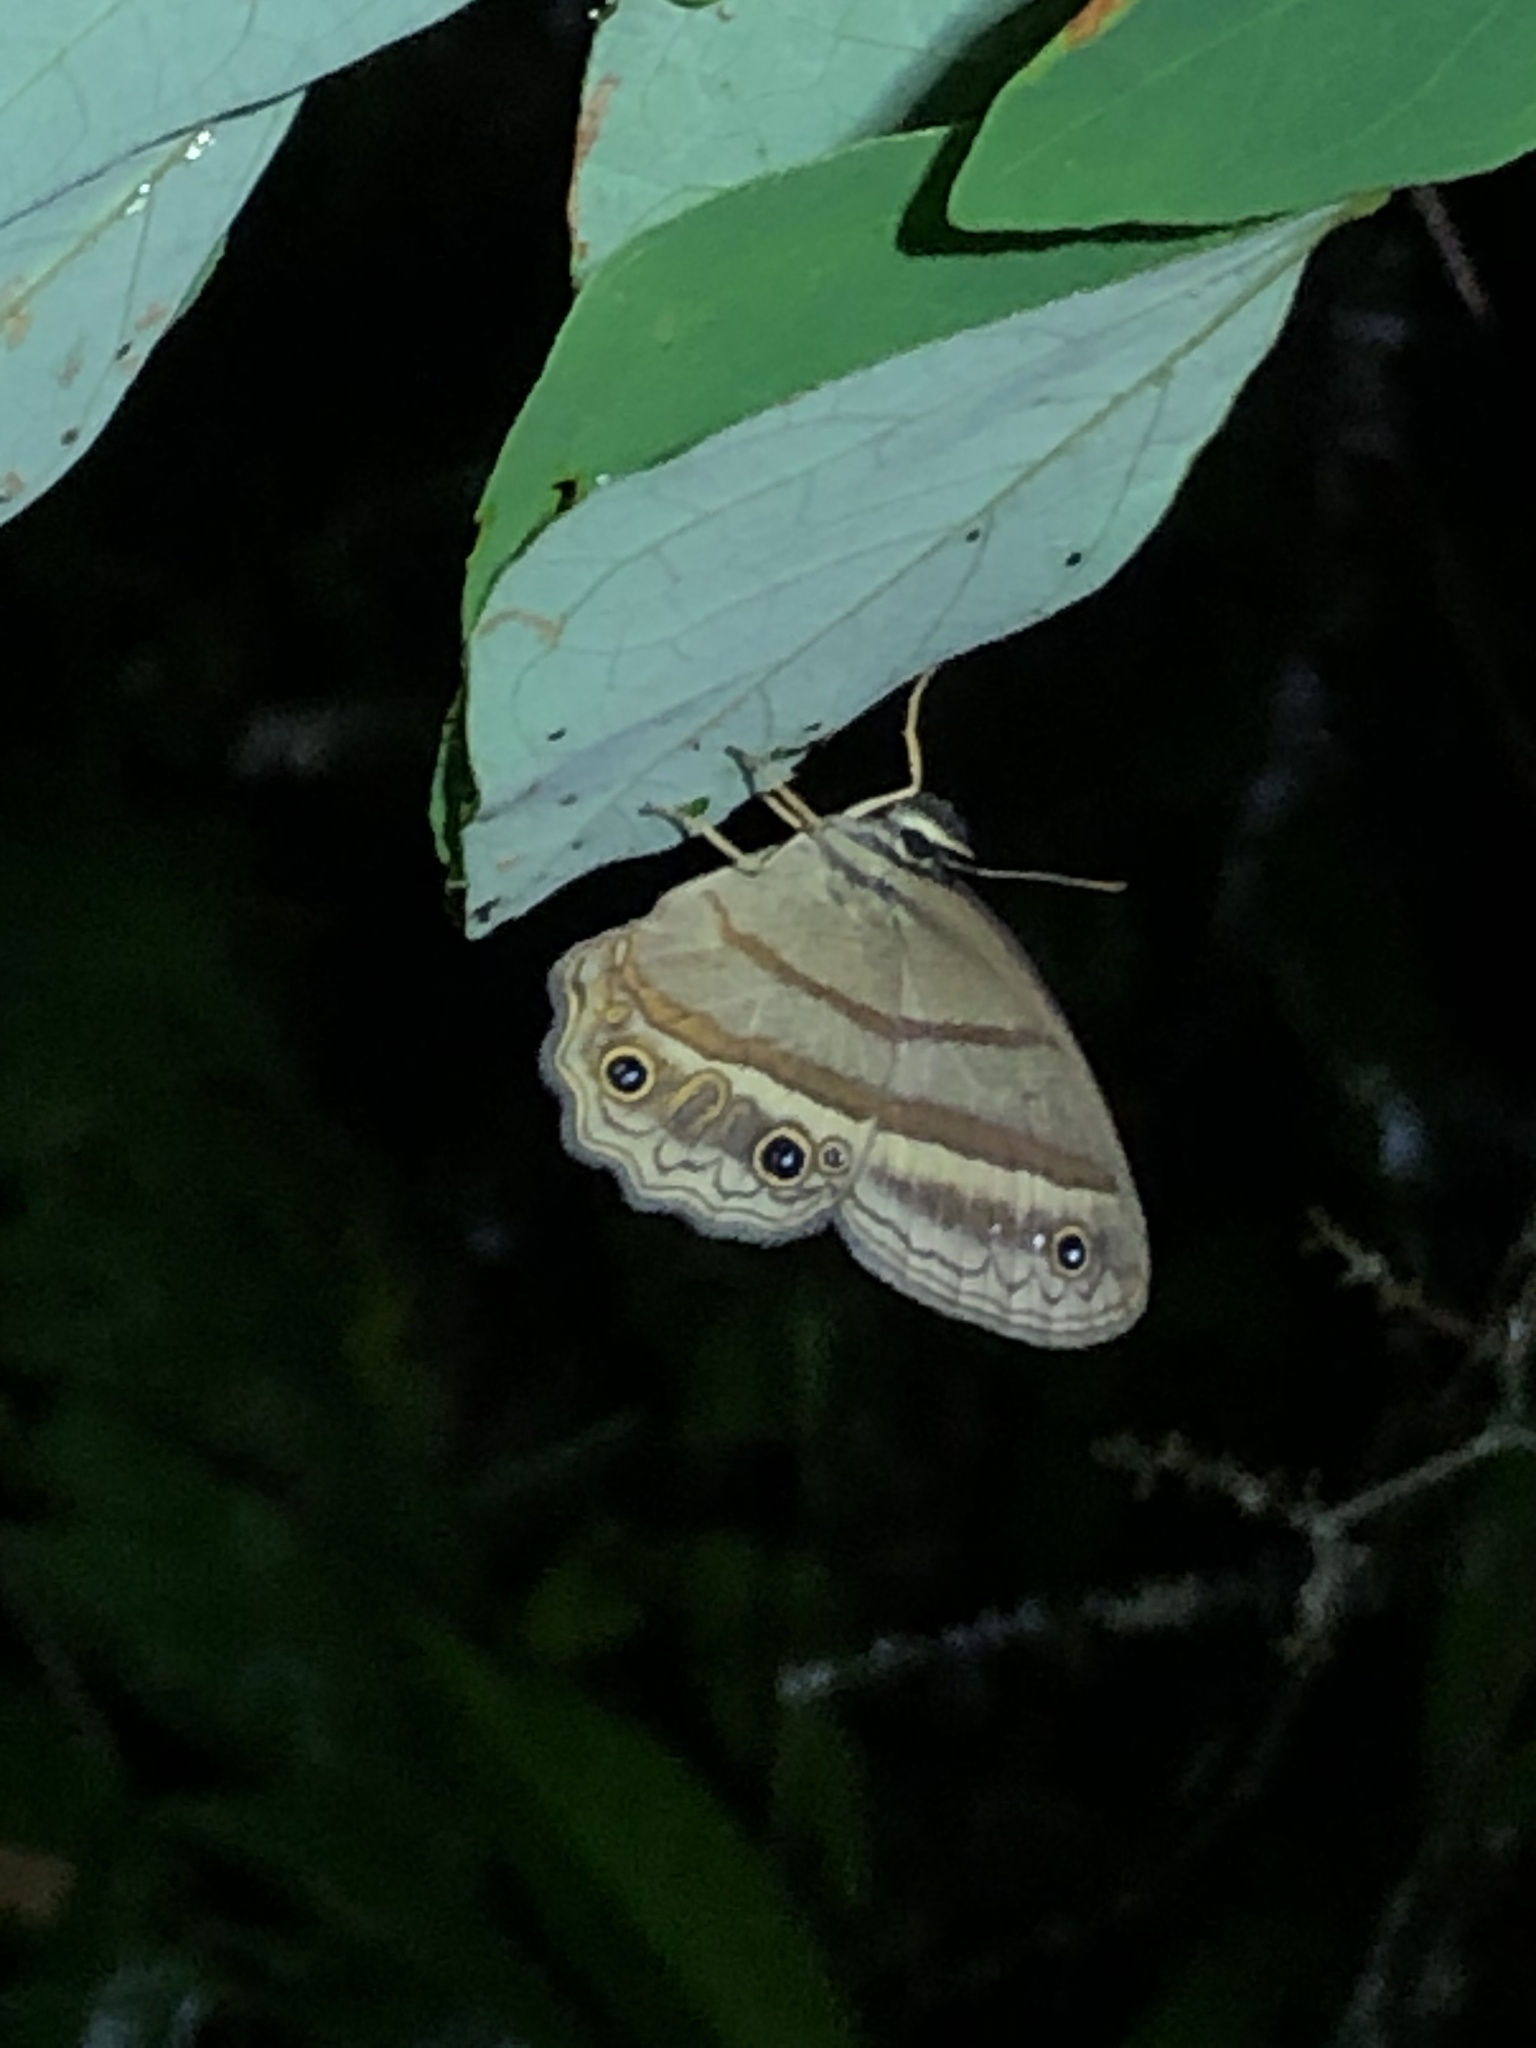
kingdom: Animalia
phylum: Arthropoda
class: Insecta
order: Lepidoptera
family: Nymphalidae
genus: Euptychia
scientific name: Euptychia Cissia proba
